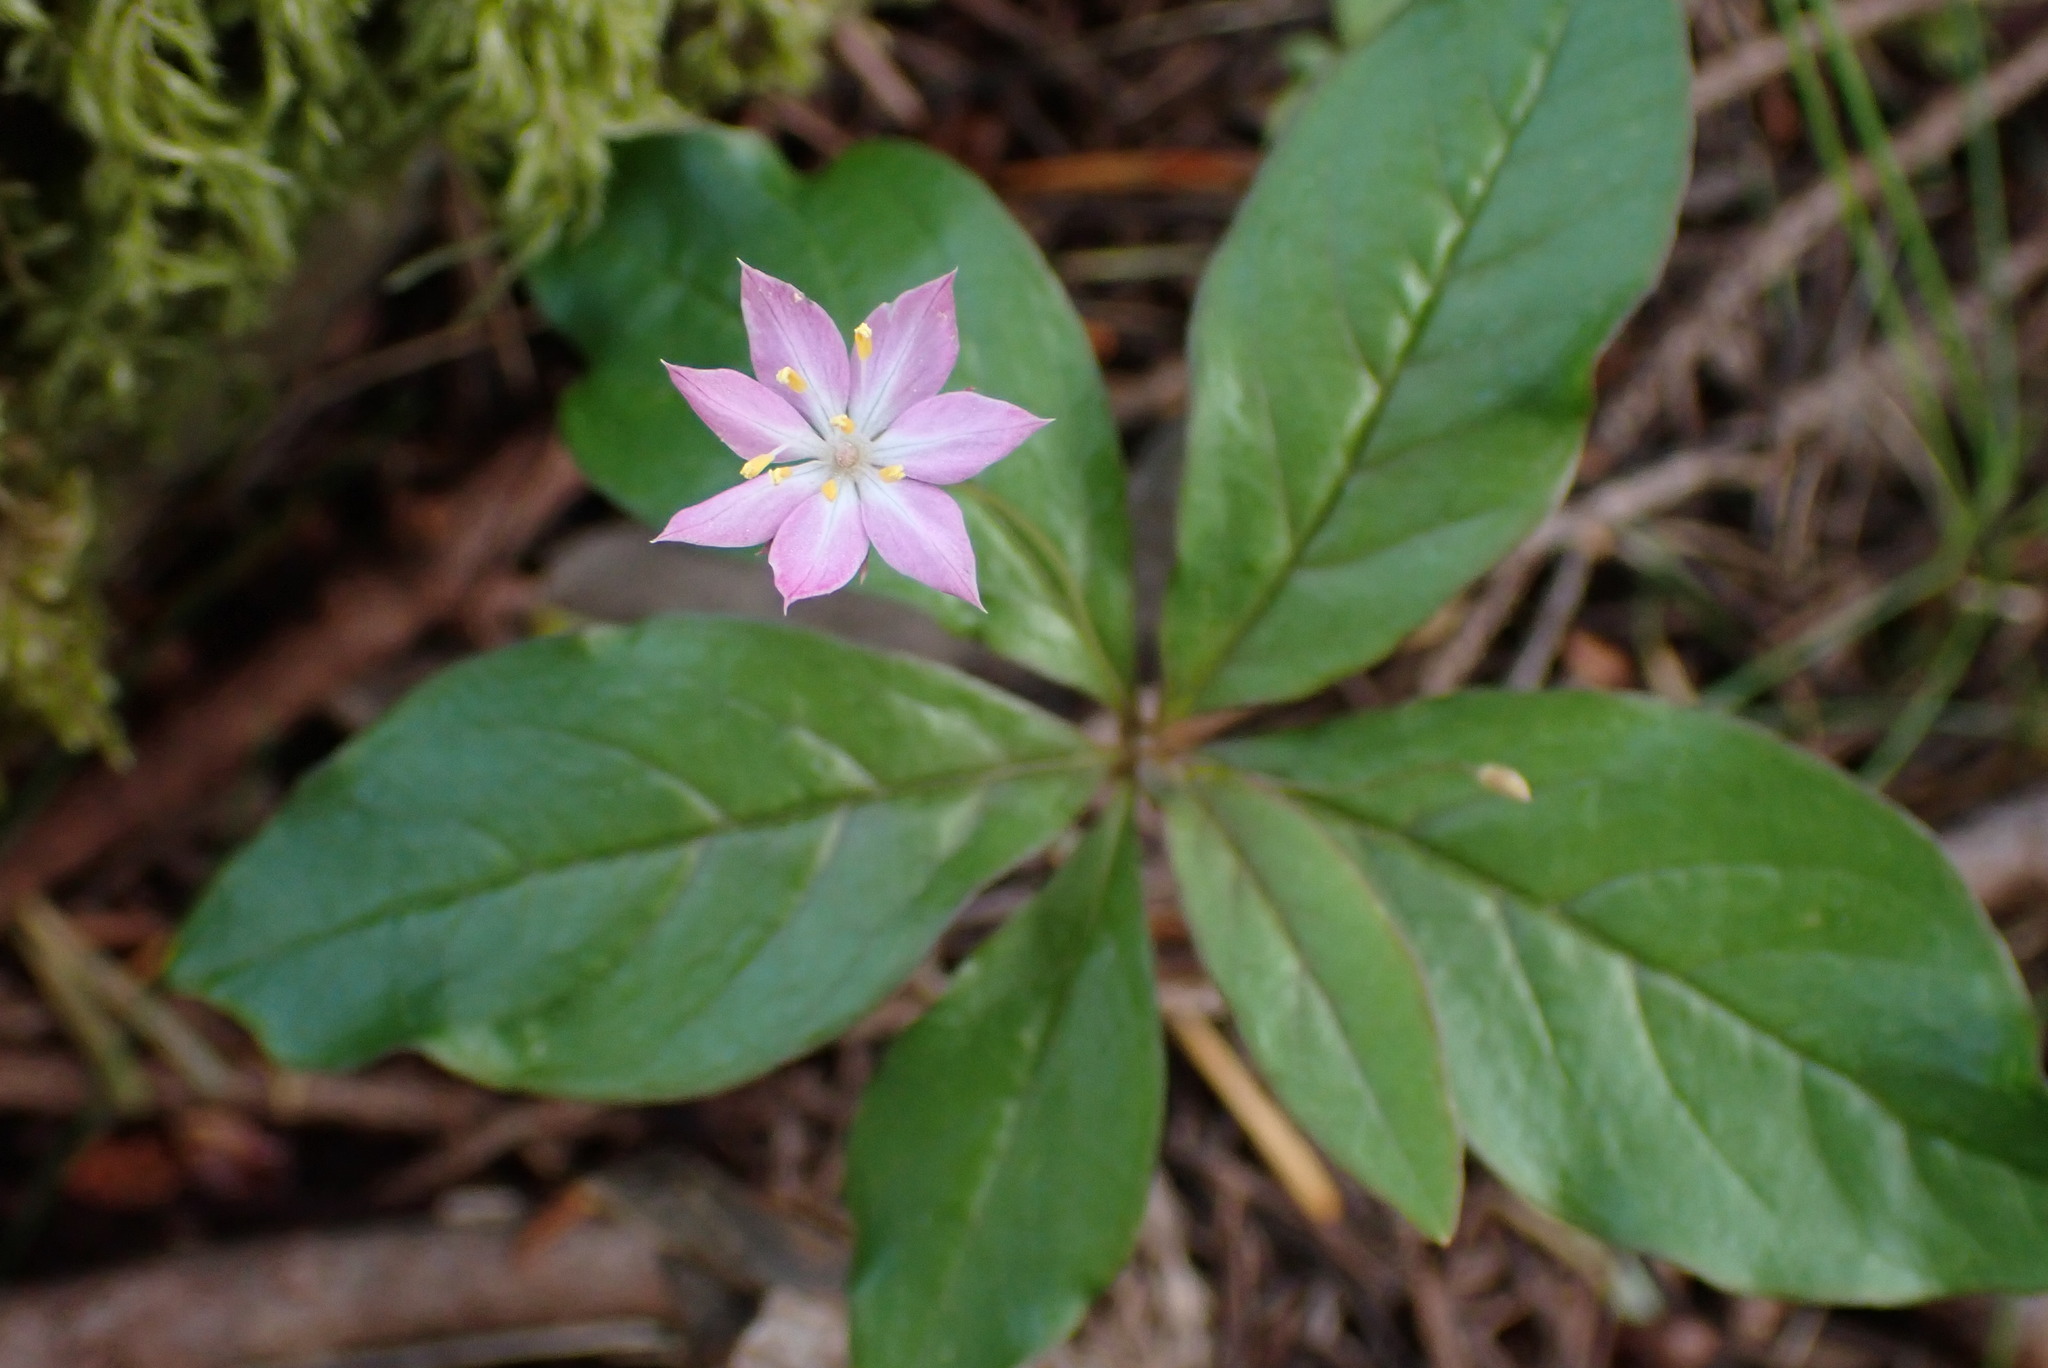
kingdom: Plantae
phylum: Tracheophyta
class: Magnoliopsida
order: Ericales
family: Primulaceae
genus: Lysimachia
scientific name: Lysimachia latifolia
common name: Pacific starflower
